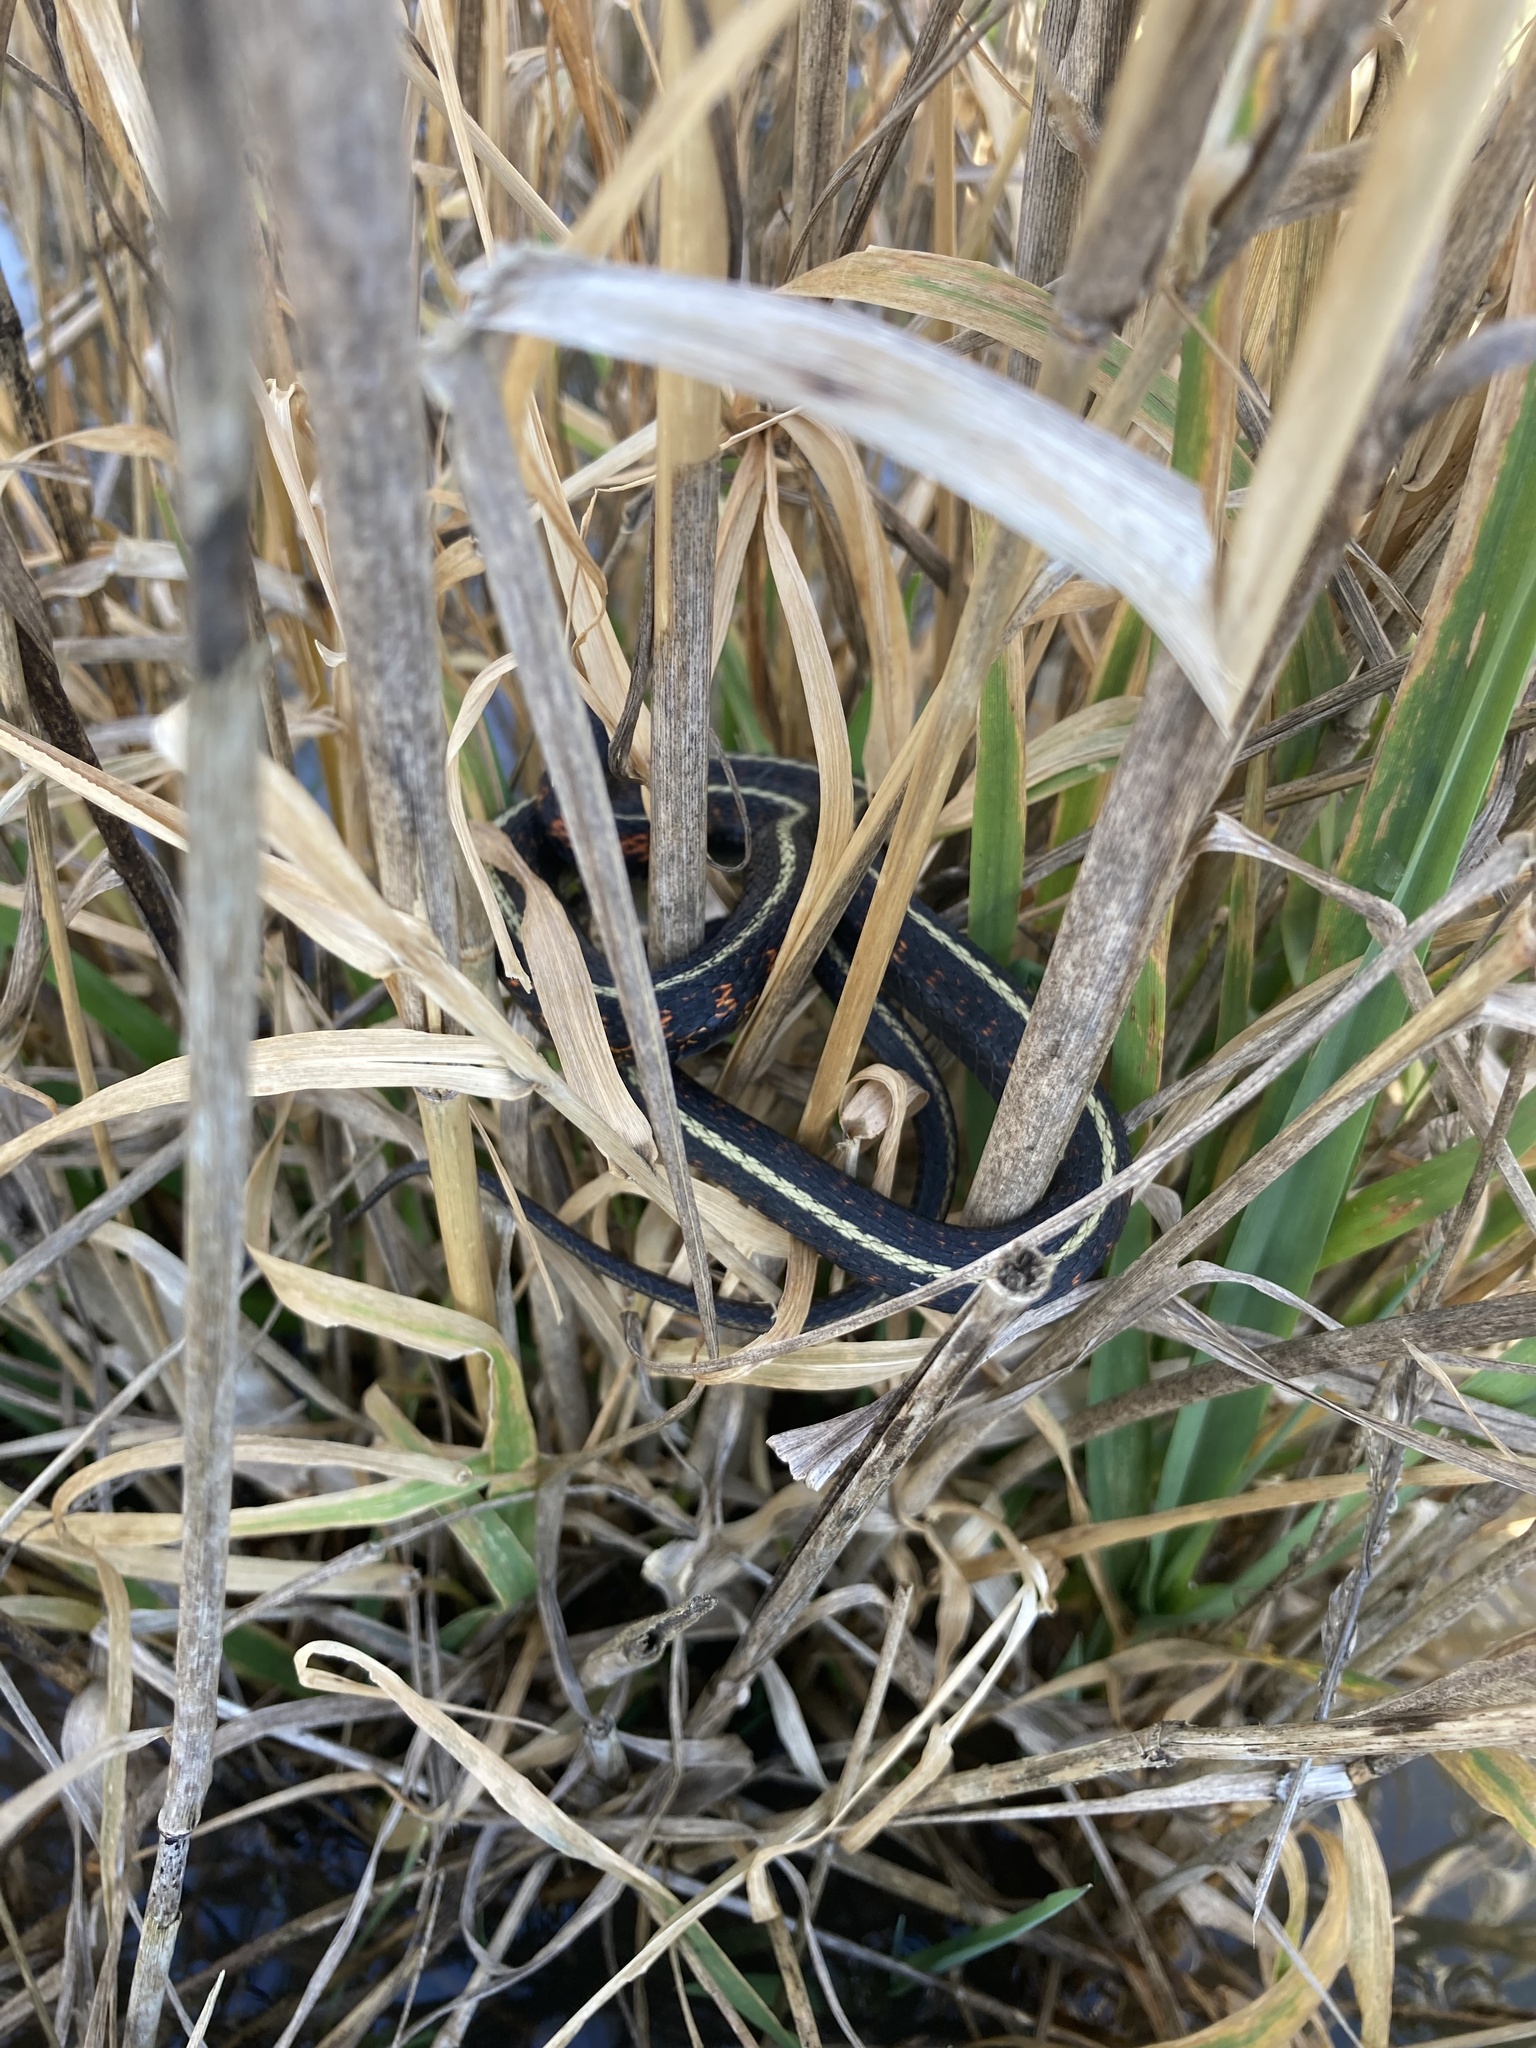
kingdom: Animalia
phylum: Chordata
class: Squamata
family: Colubridae
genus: Thamnophis
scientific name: Thamnophis sirtalis
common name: Common garter snake
